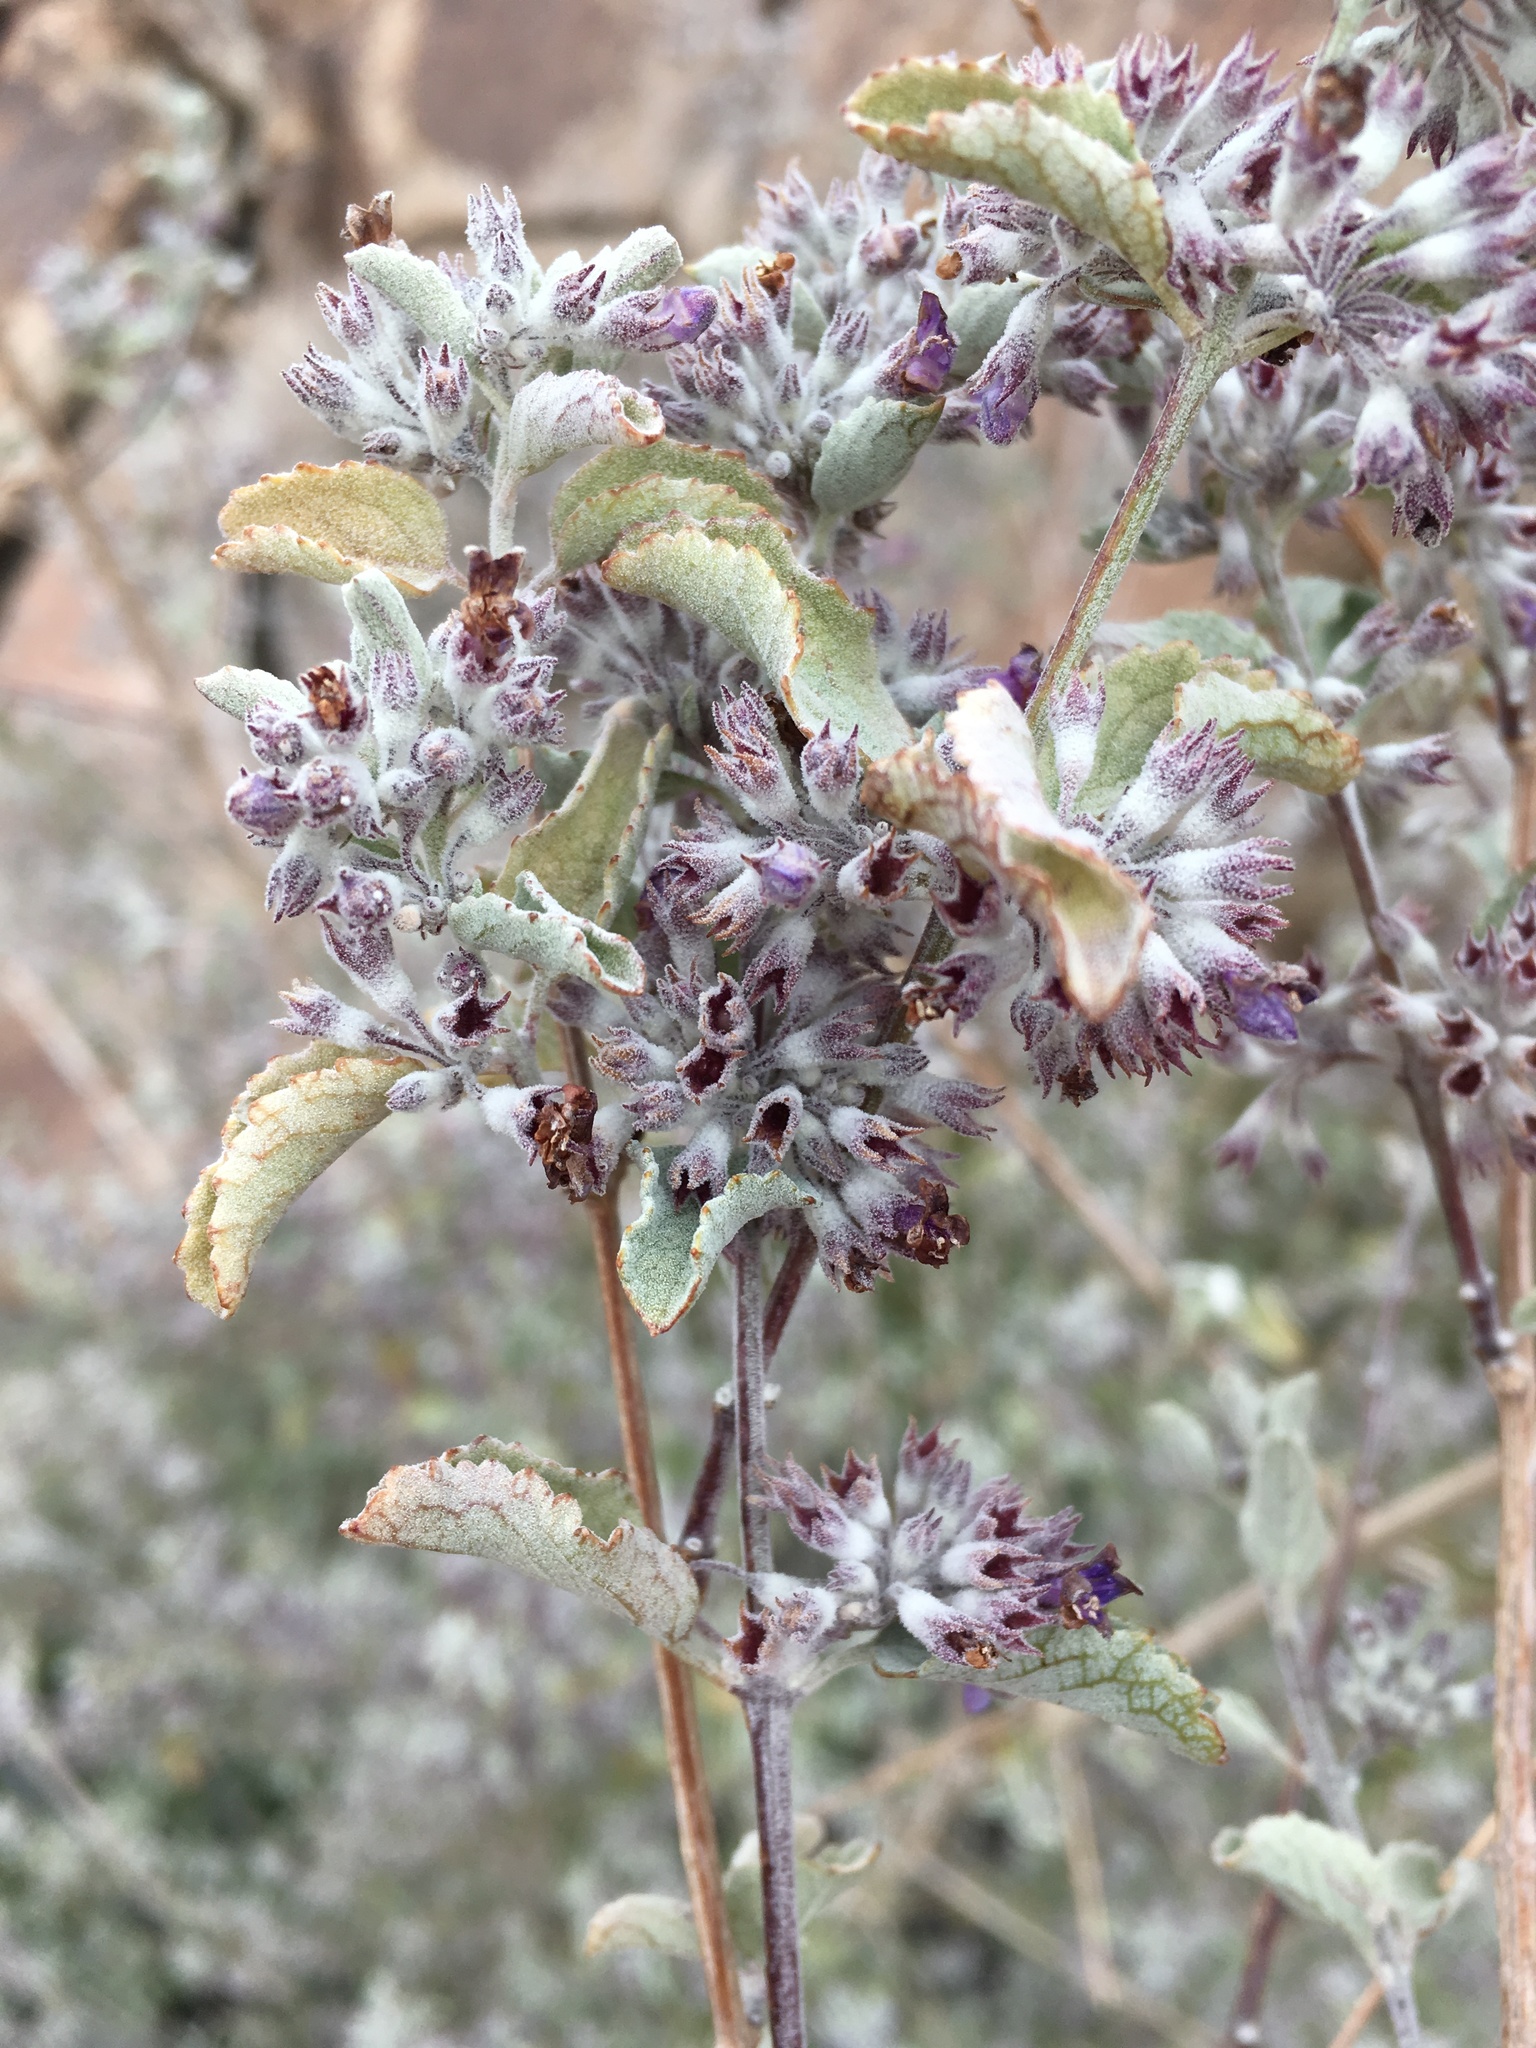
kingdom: Plantae
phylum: Tracheophyta
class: Magnoliopsida
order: Lamiales
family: Lamiaceae
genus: Condea
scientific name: Condea emoryi
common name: Chia
